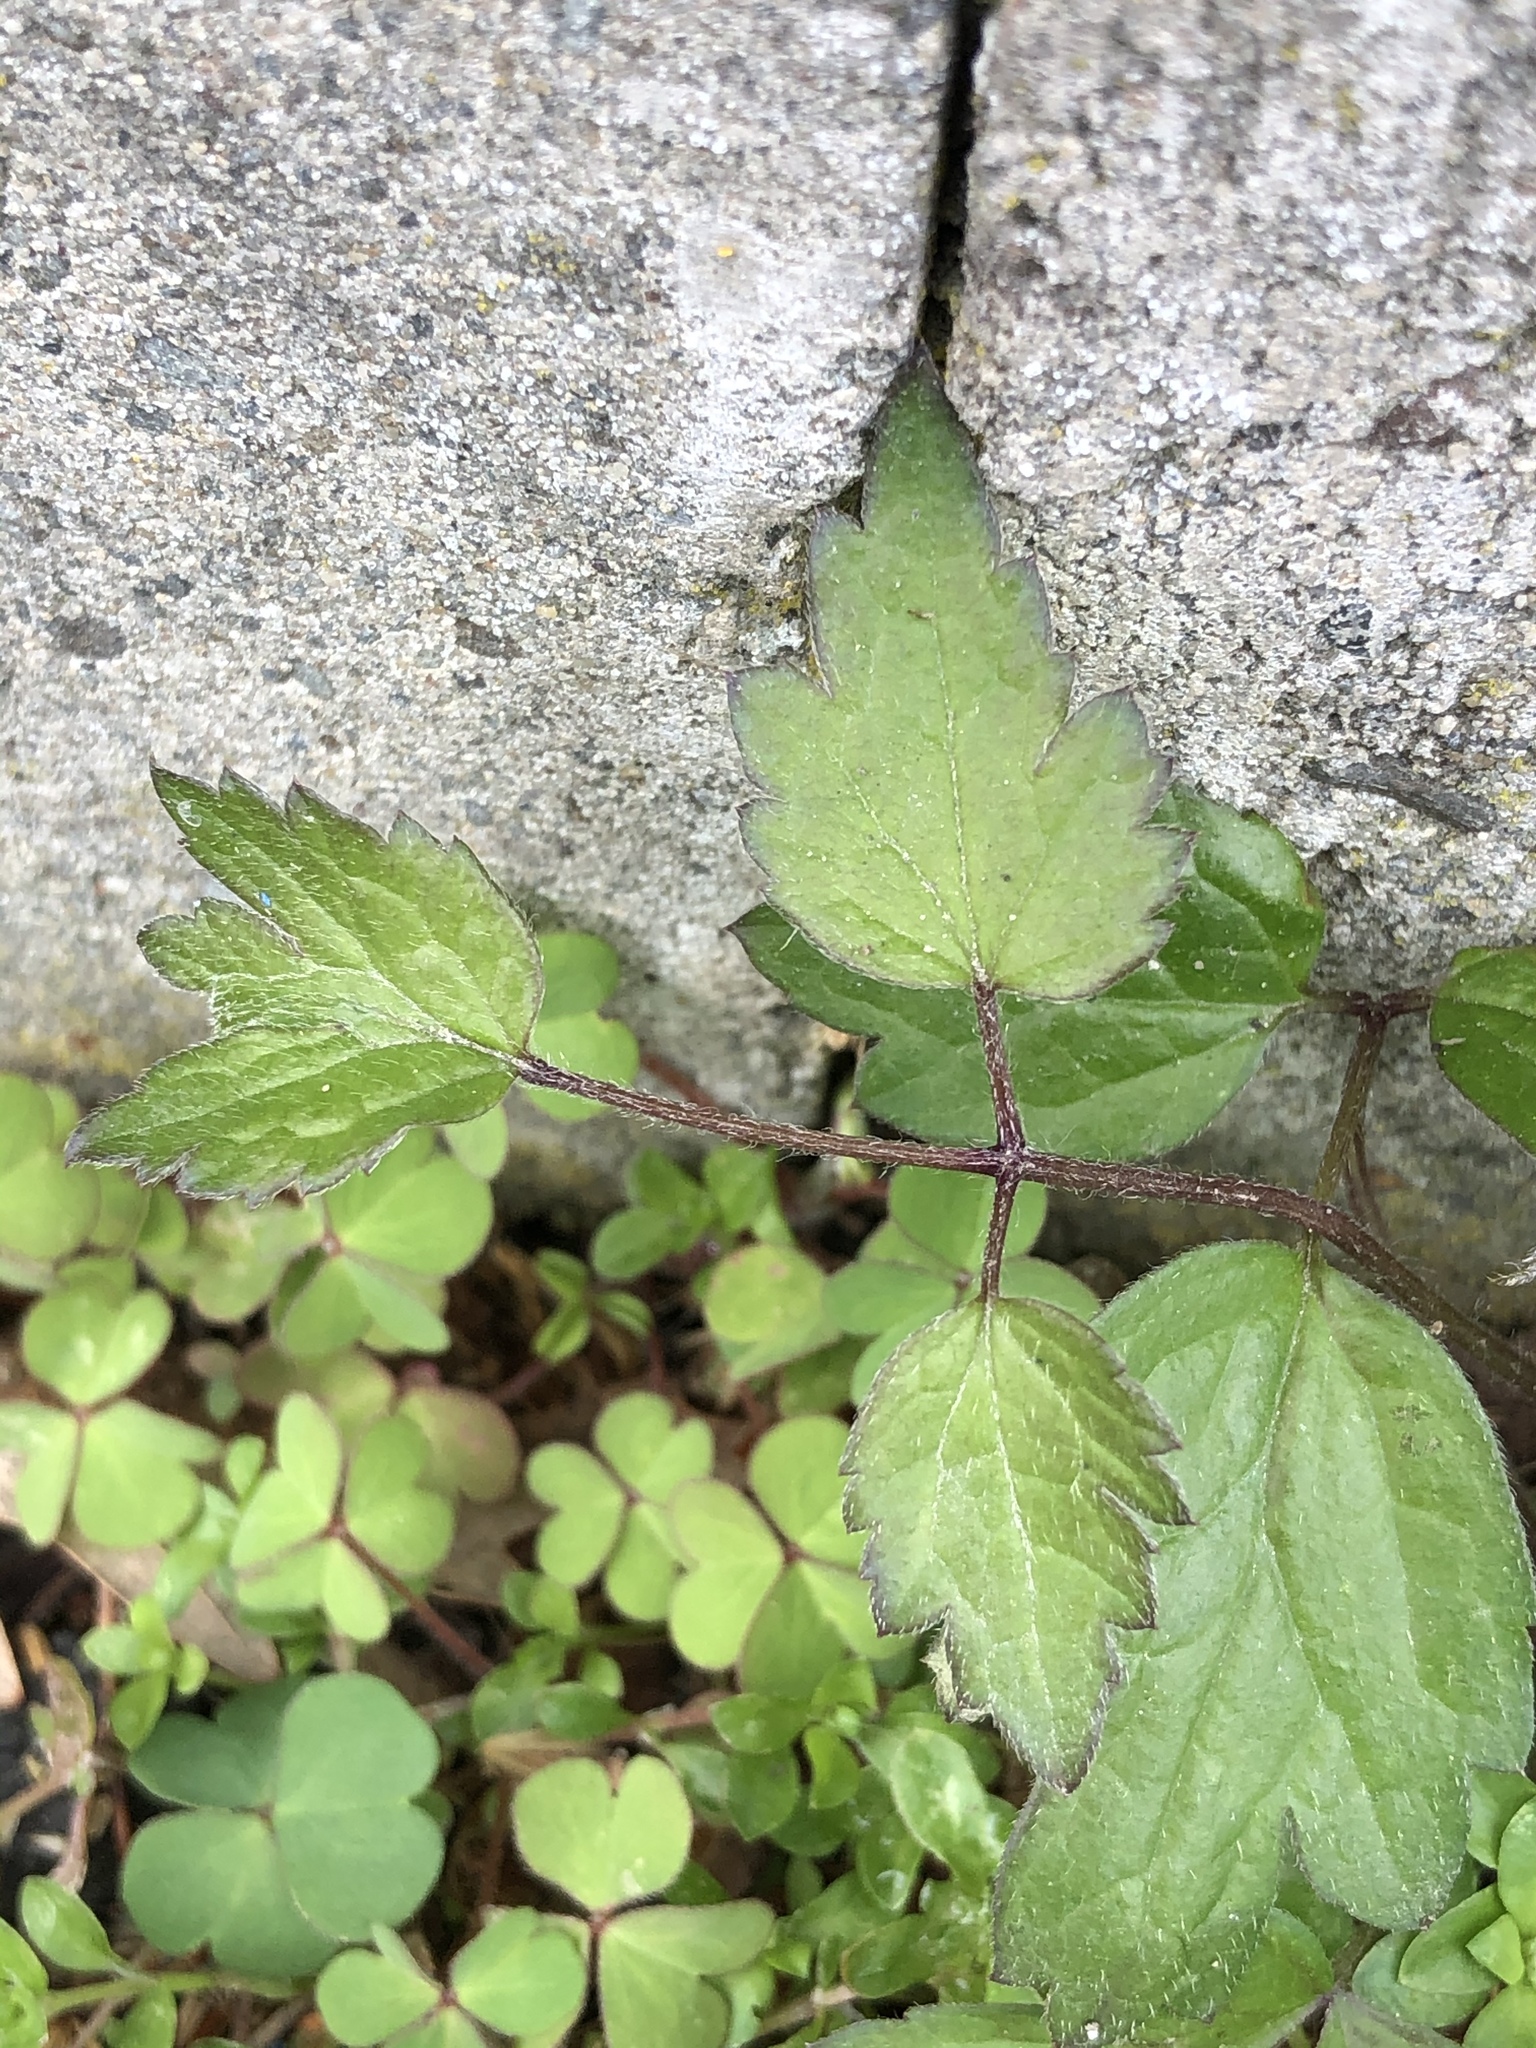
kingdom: Plantae
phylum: Tracheophyta
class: Magnoliopsida
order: Ranunculales
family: Ranunculaceae
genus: Clematis
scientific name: Clematis vitalba
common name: Evergreen clematis
